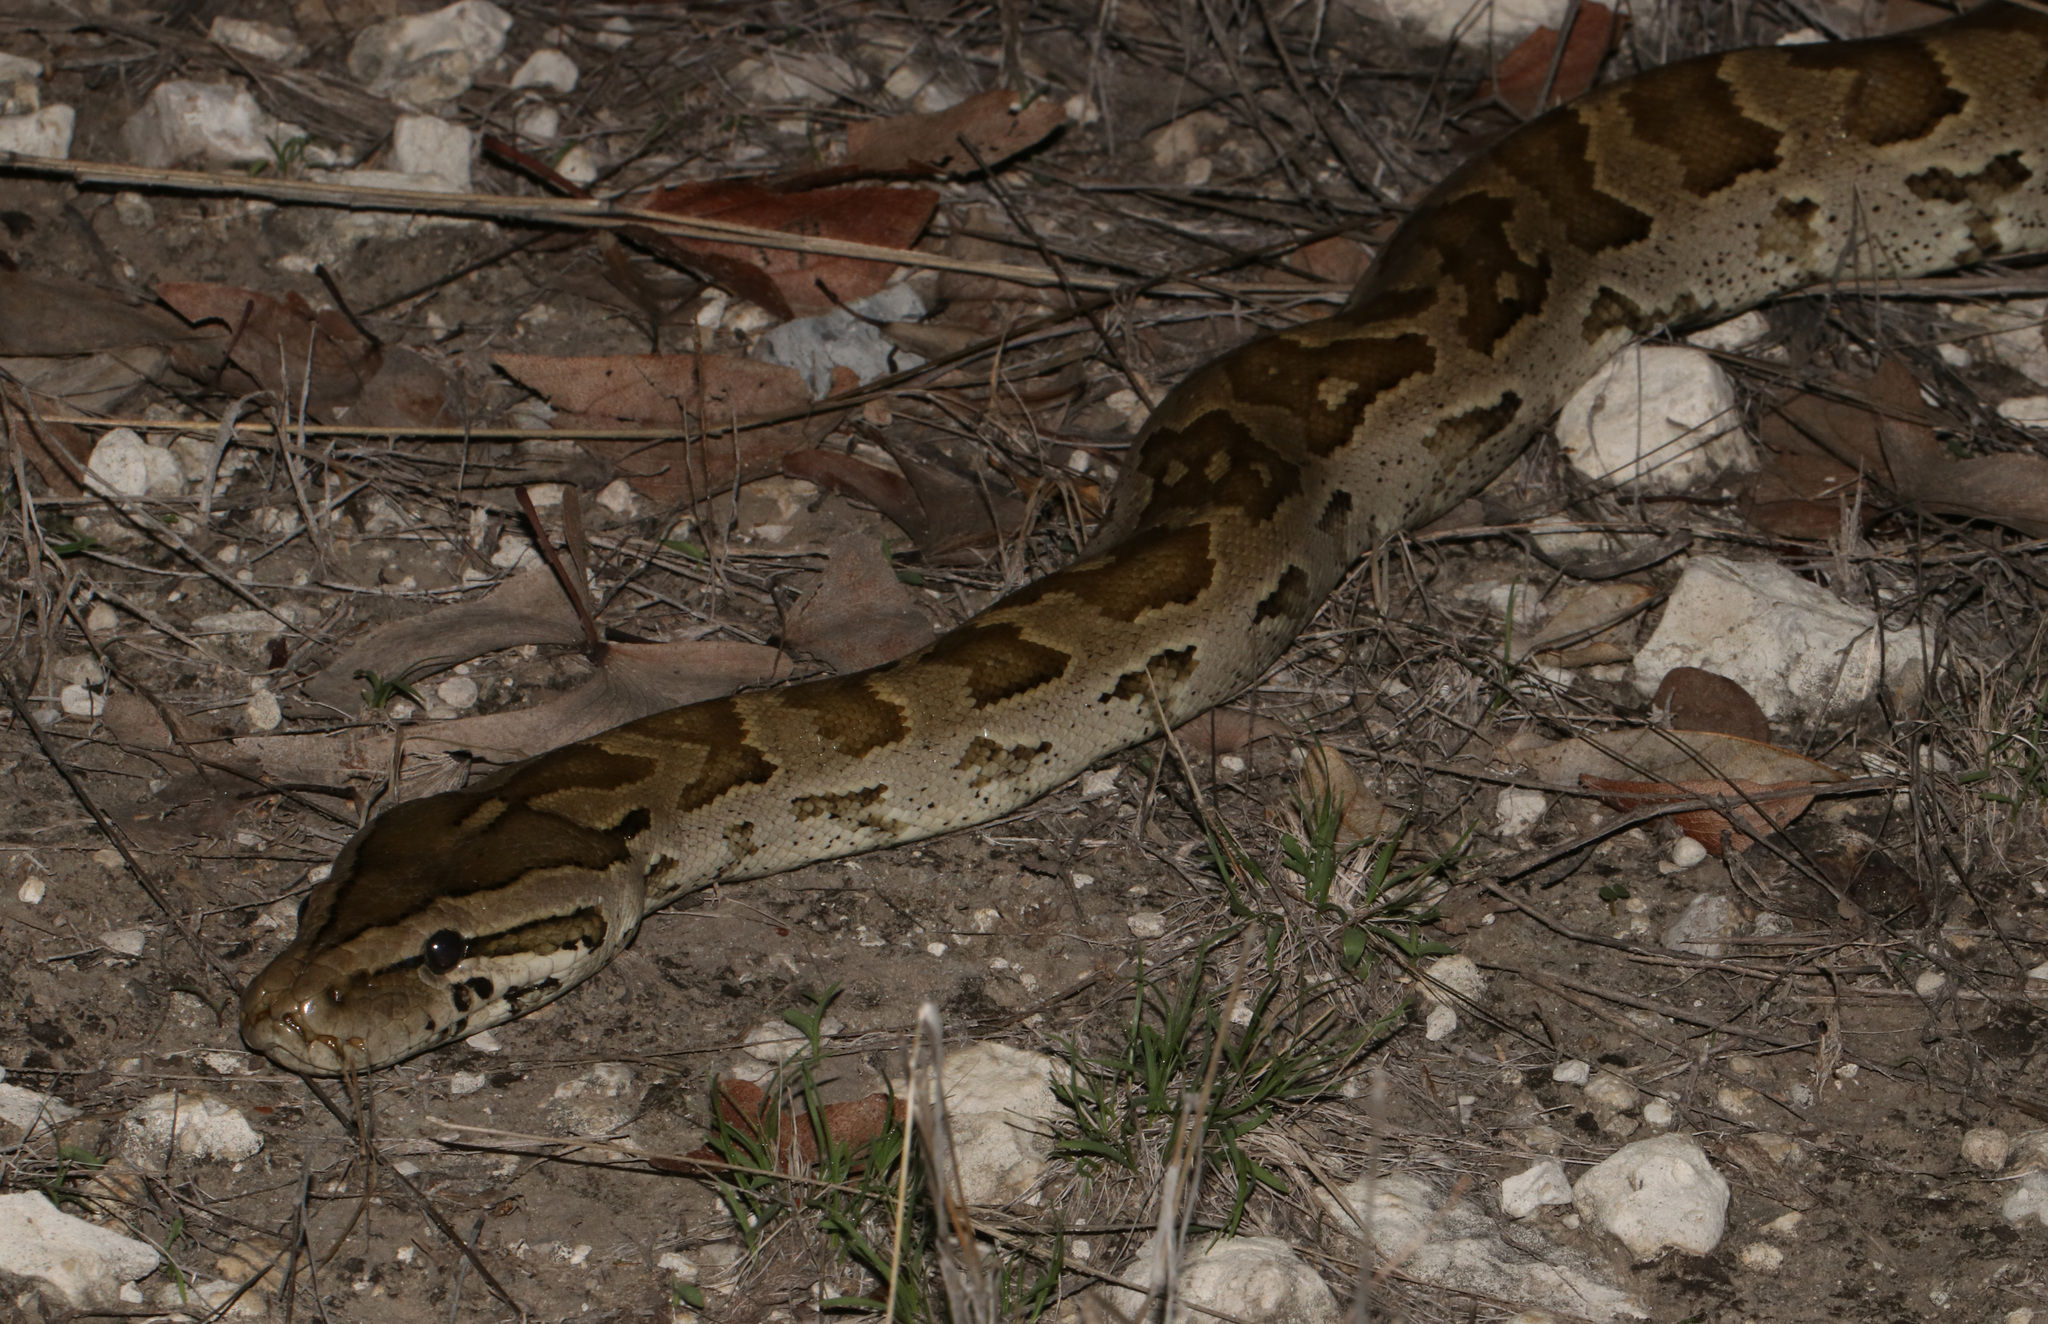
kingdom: Animalia
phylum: Chordata
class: Squamata
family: Pythonidae
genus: Python
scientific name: Python natalensis
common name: Southern african rock python
